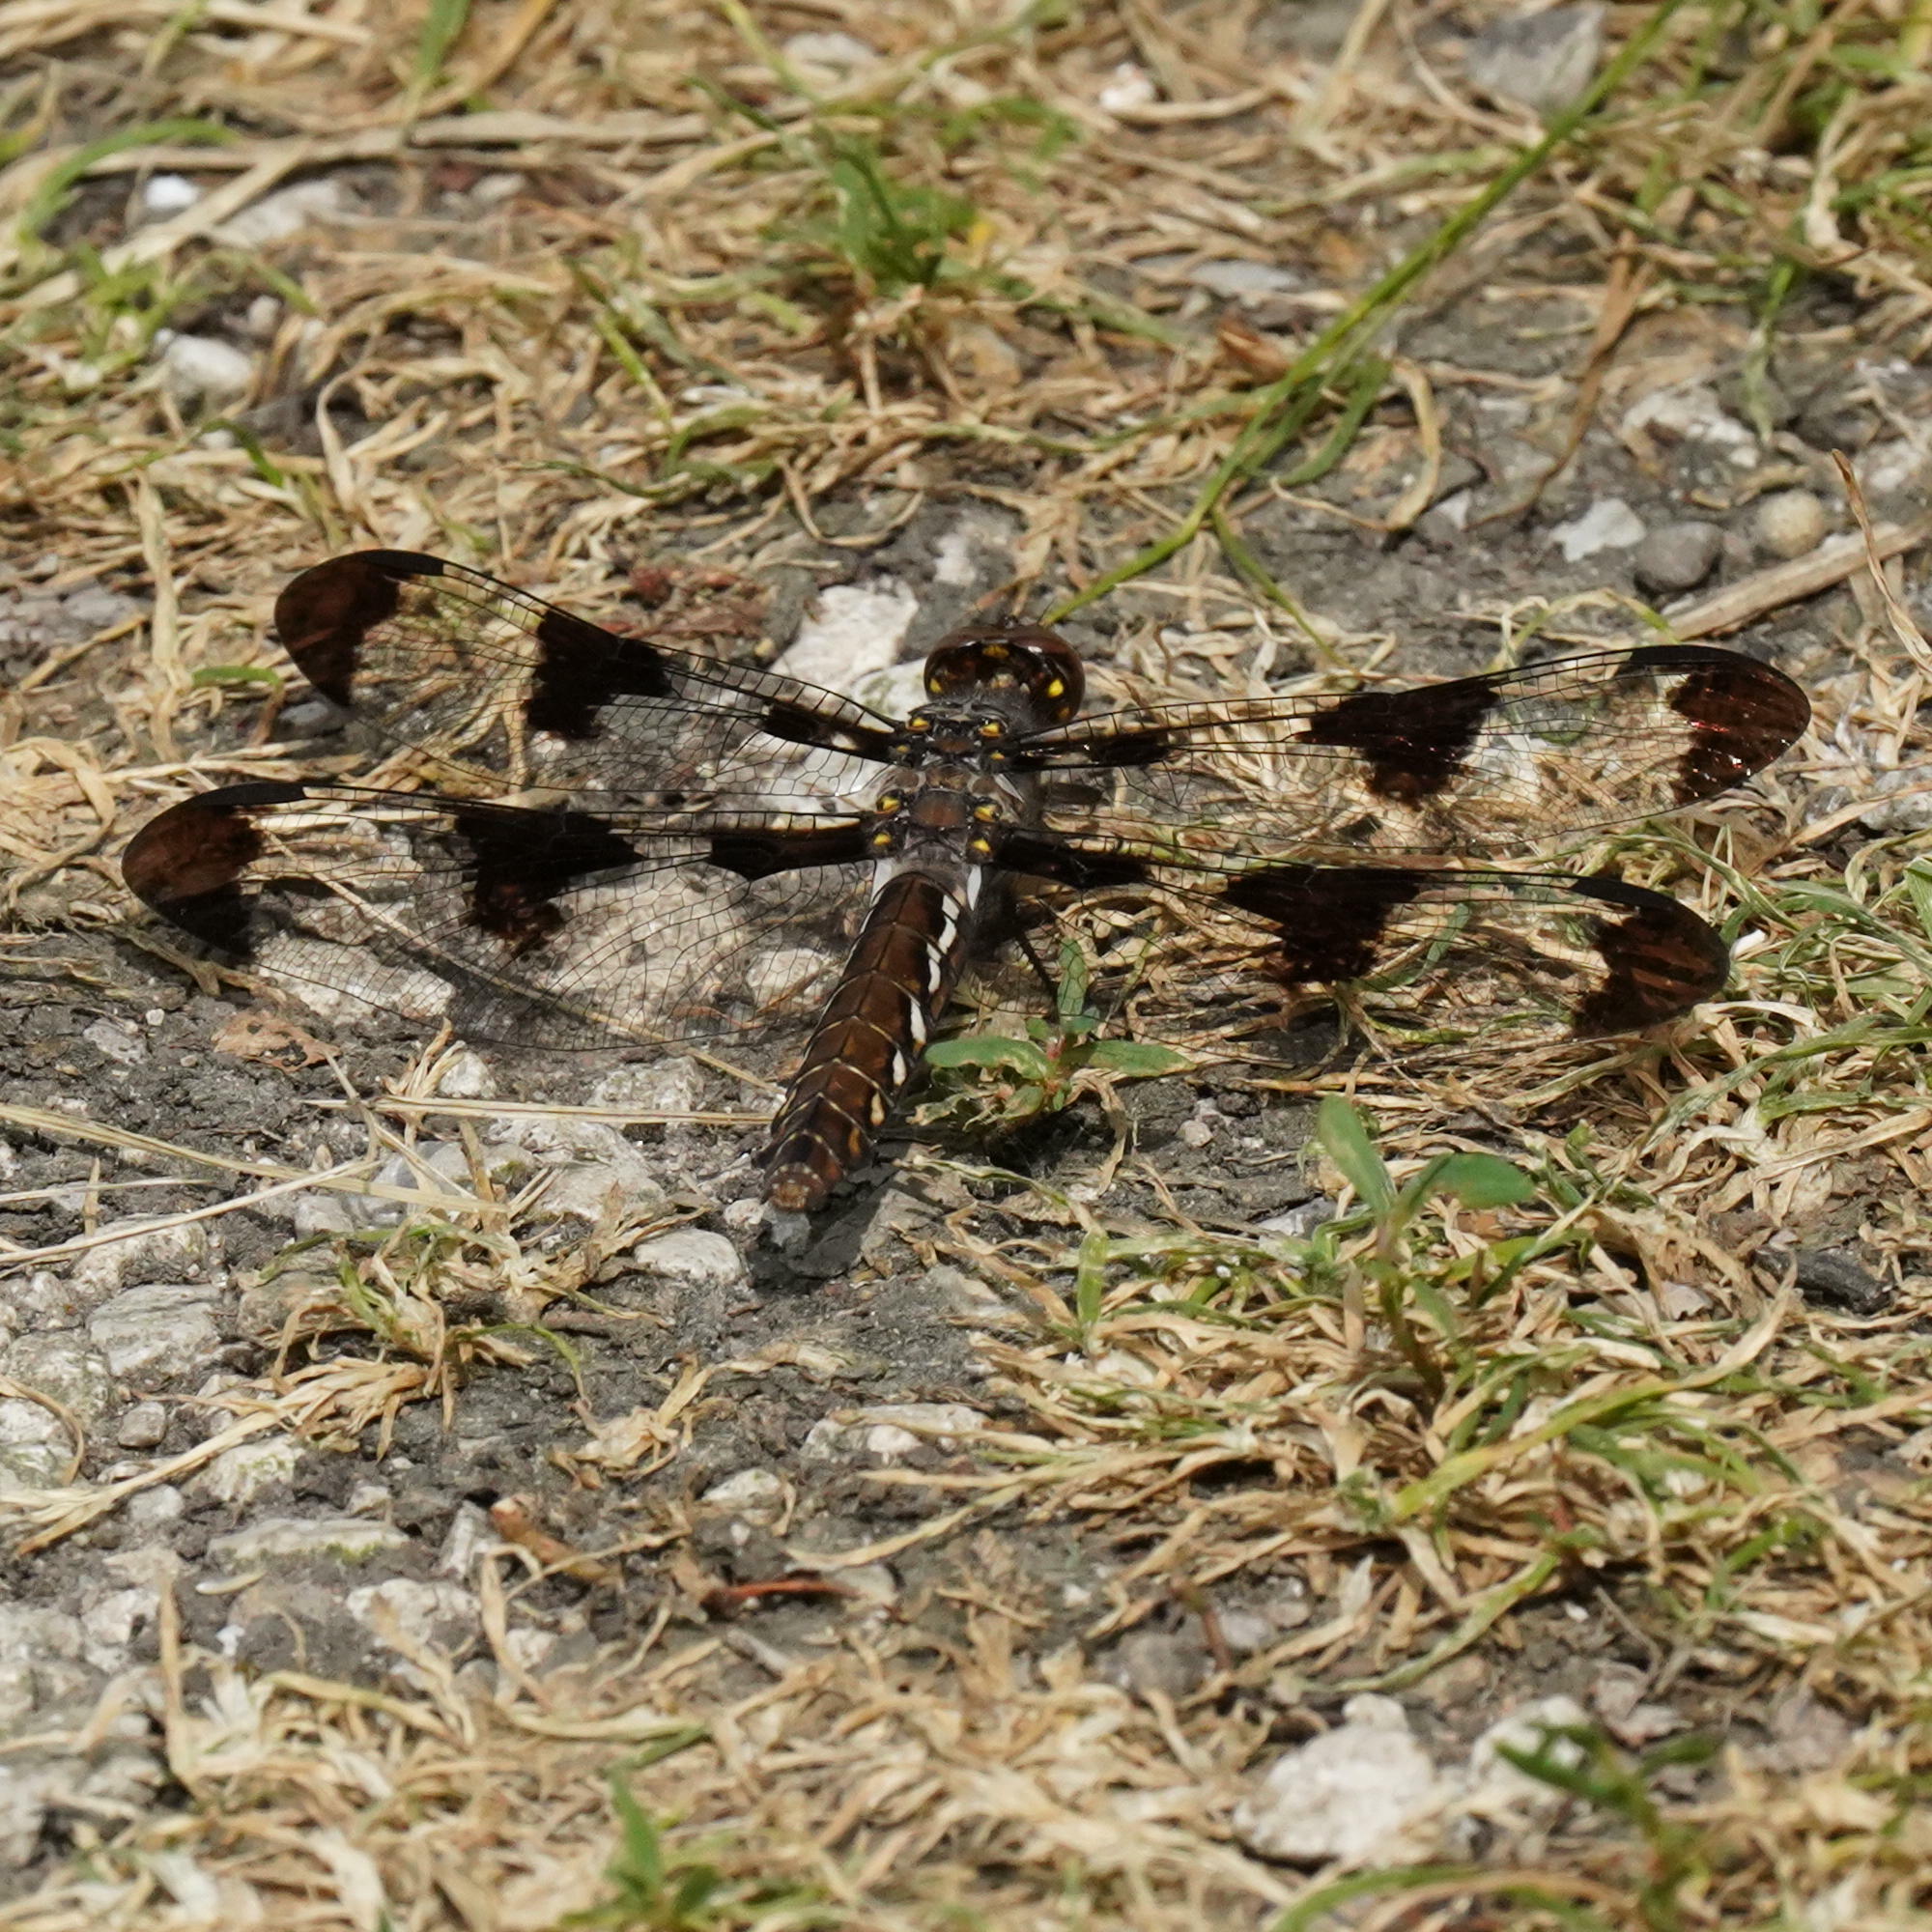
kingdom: Animalia
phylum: Arthropoda
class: Insecta
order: Odonata
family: Libellulidae
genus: Plathemis
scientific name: Plathemis lydia
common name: Common whitetail
